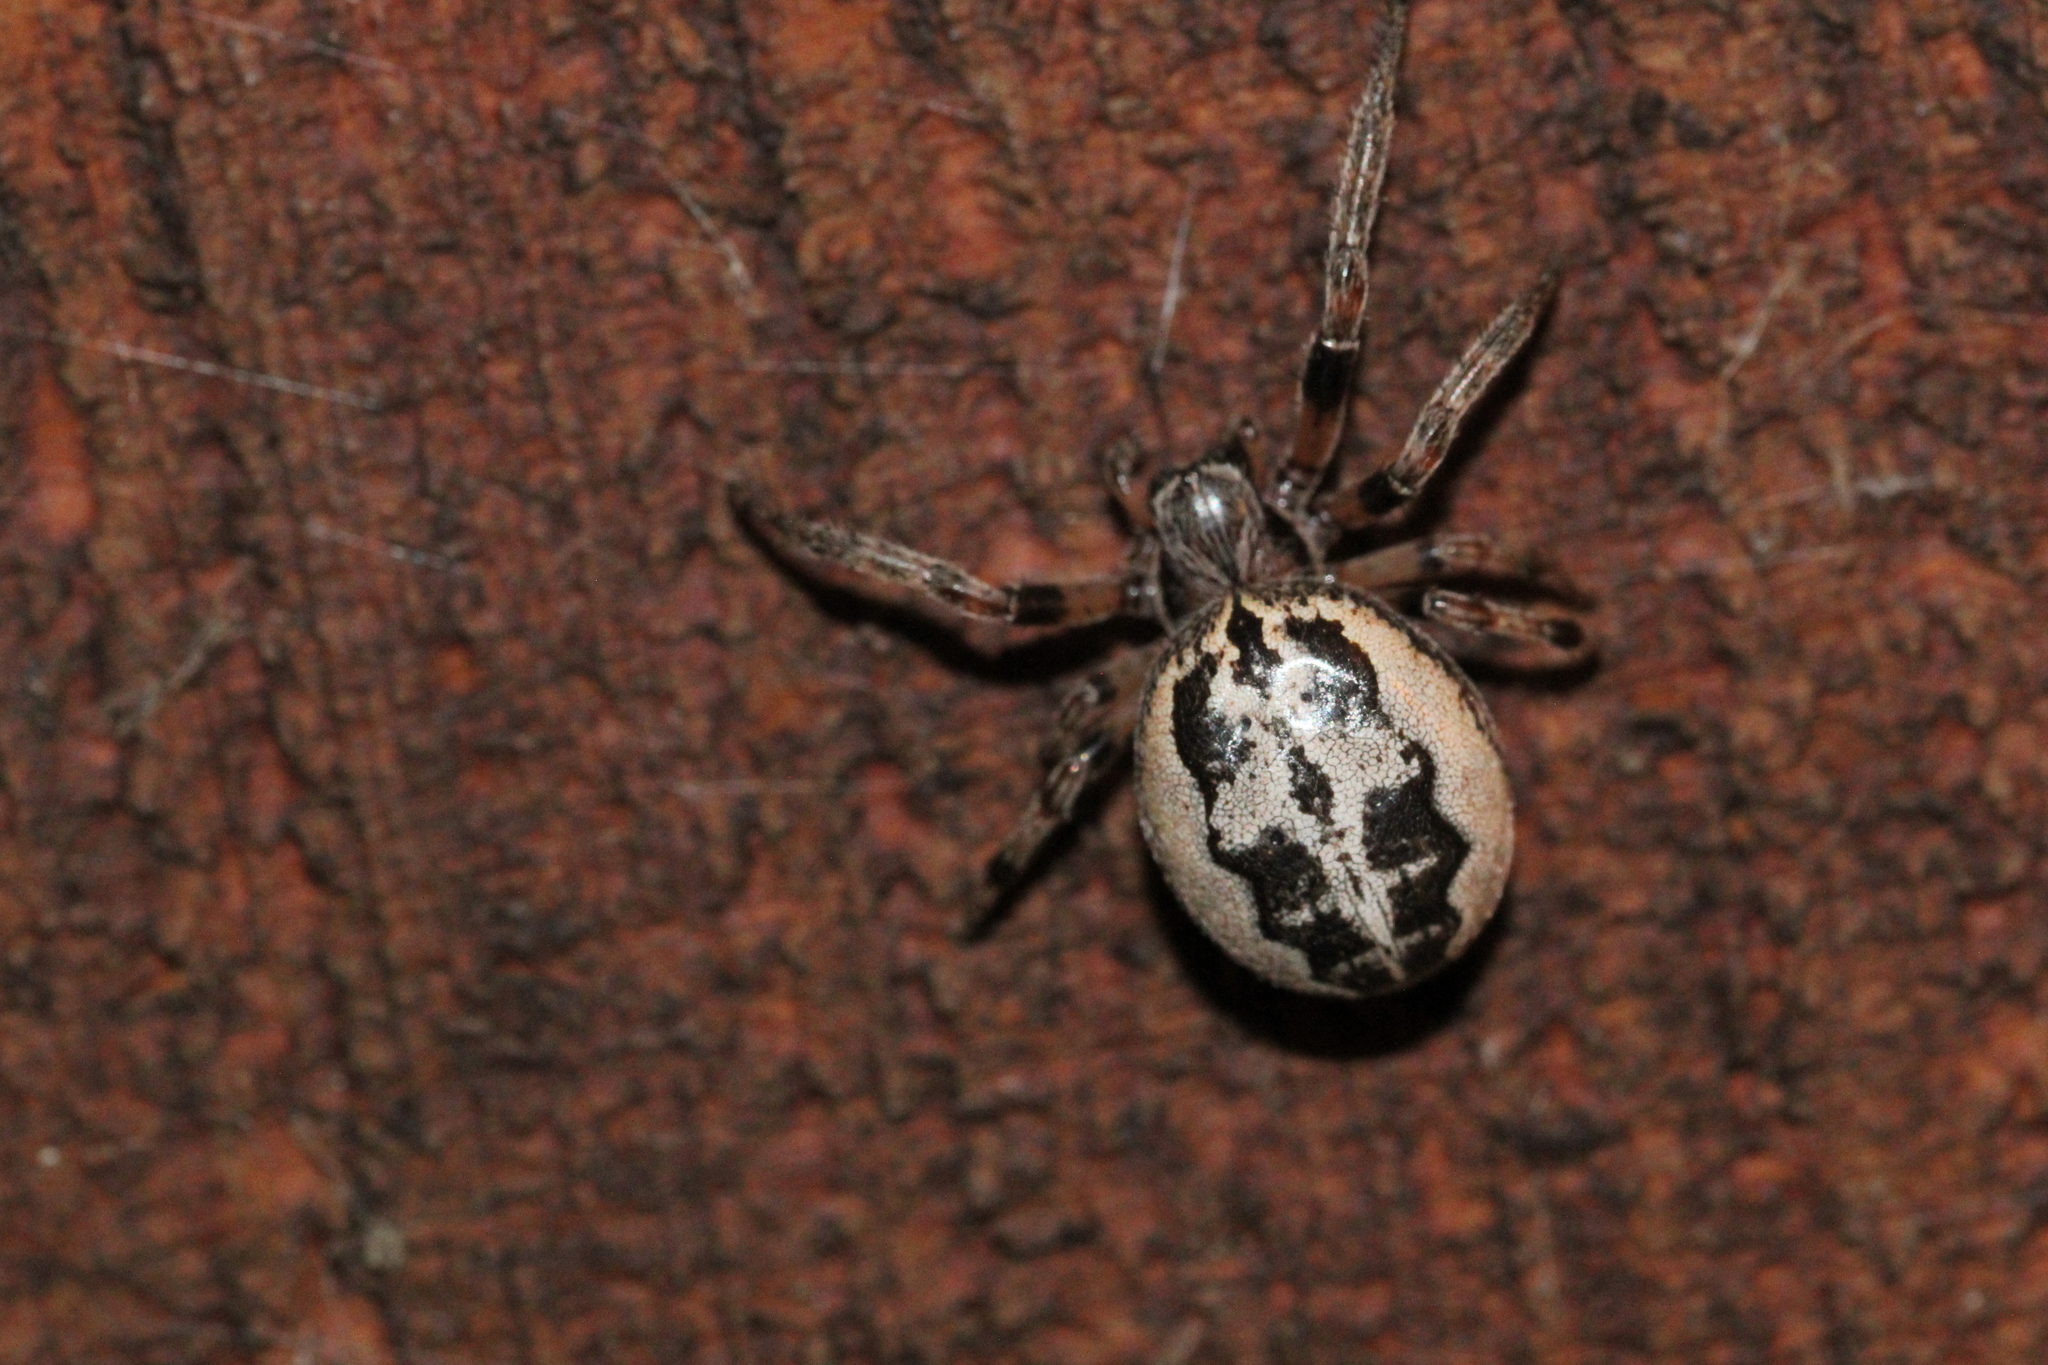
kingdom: Animalia
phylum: Arthropoda
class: Arachnida
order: Araneae
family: Araneidae
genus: Larinioides
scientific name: Larinioides cornutus
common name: Furrow orbweaver
